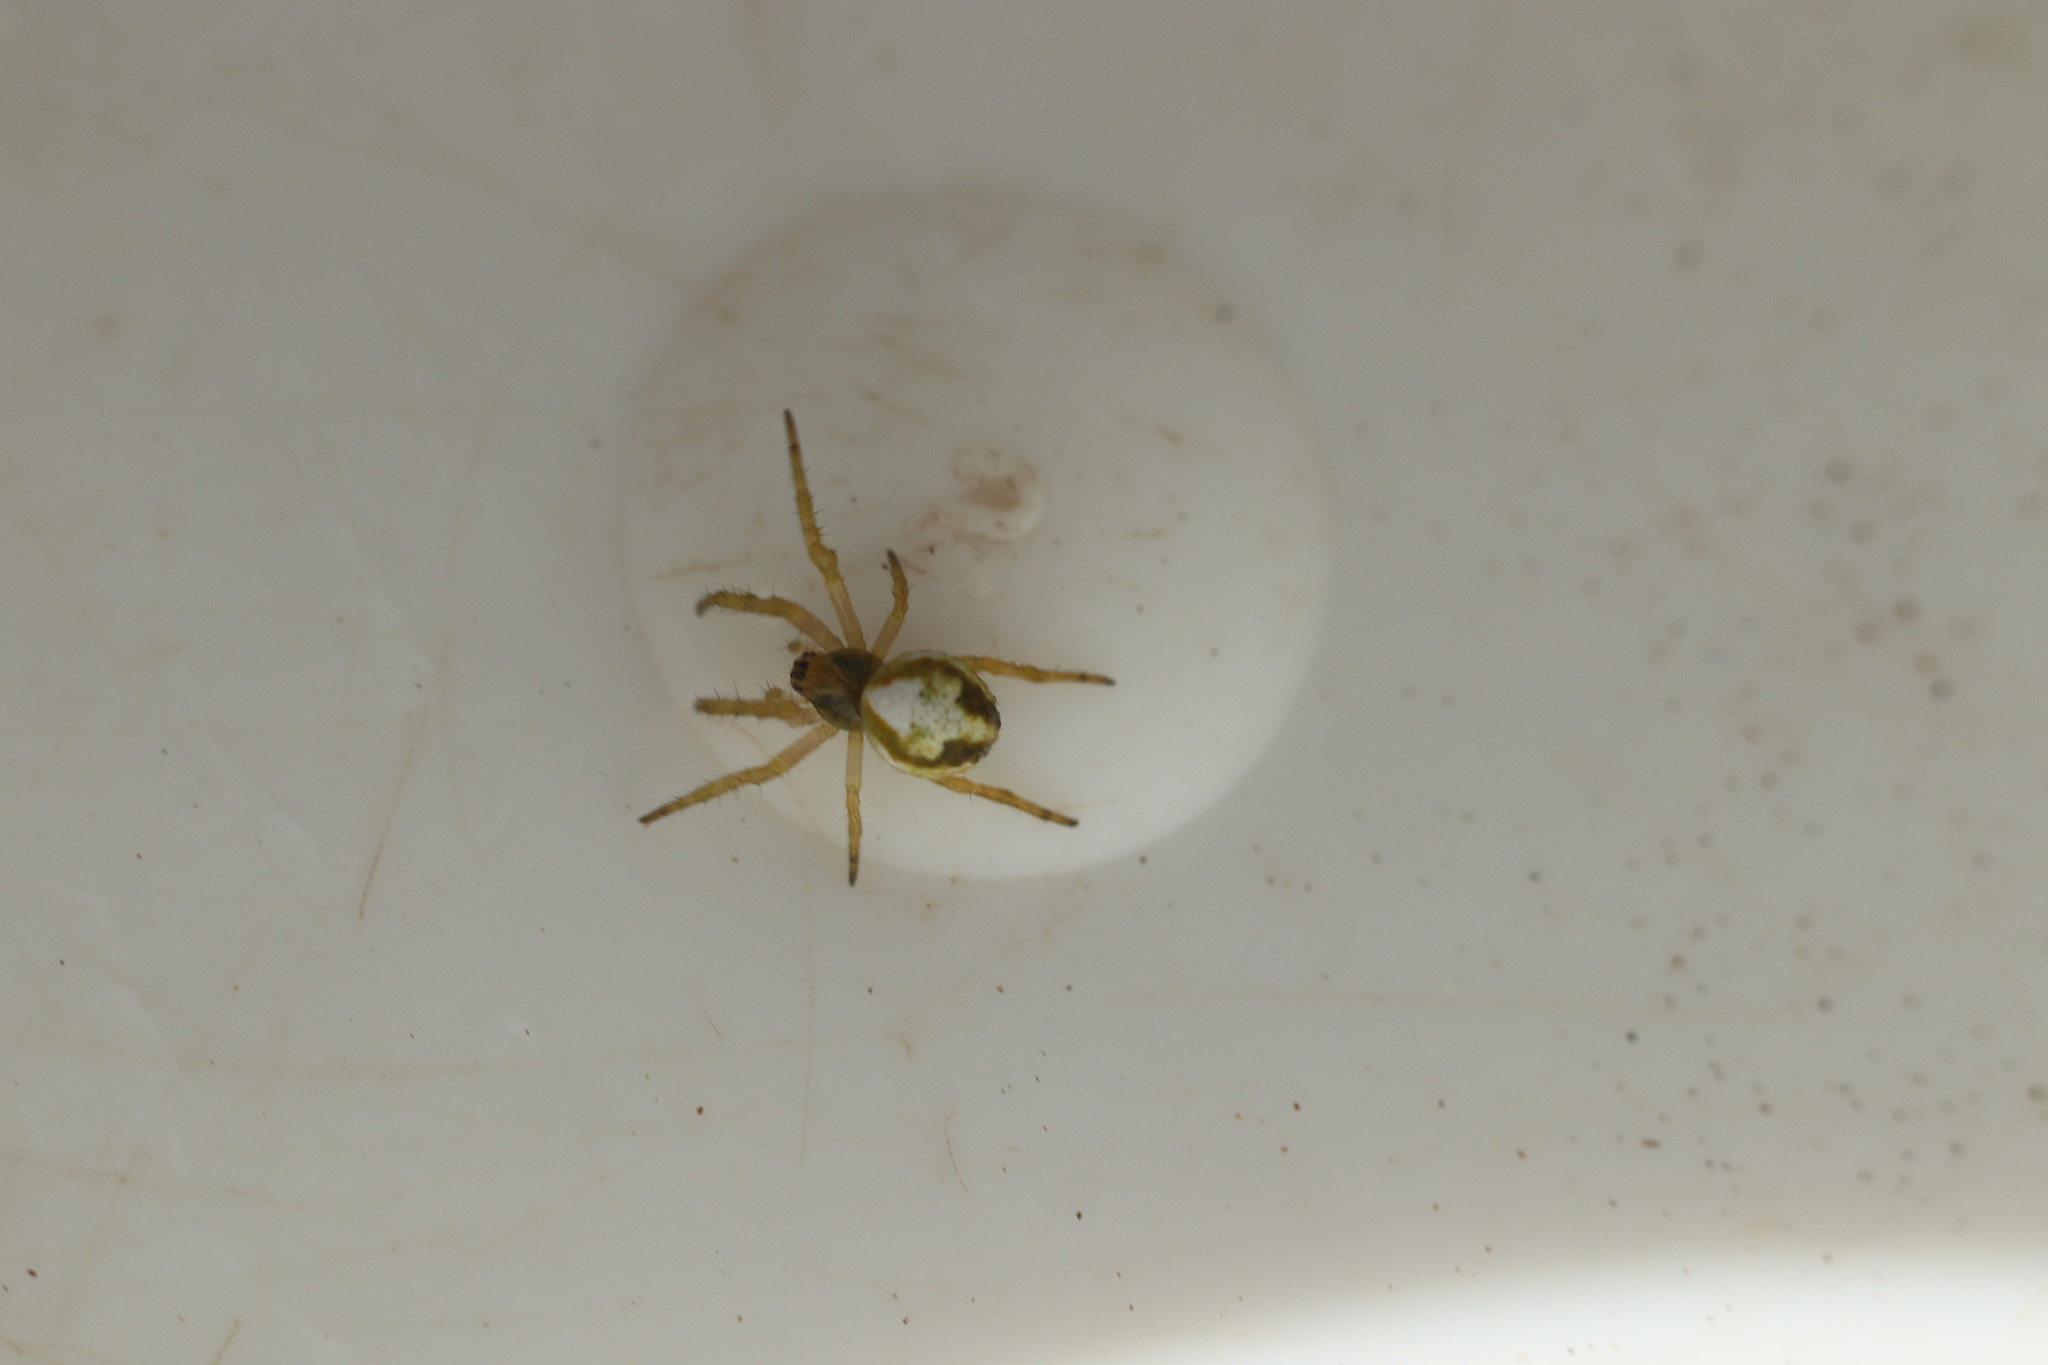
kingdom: Animalia
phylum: Arthropoda
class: Arachnida
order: Araneae
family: Araneidae
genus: Colaranea
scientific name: Colaranea verutum
